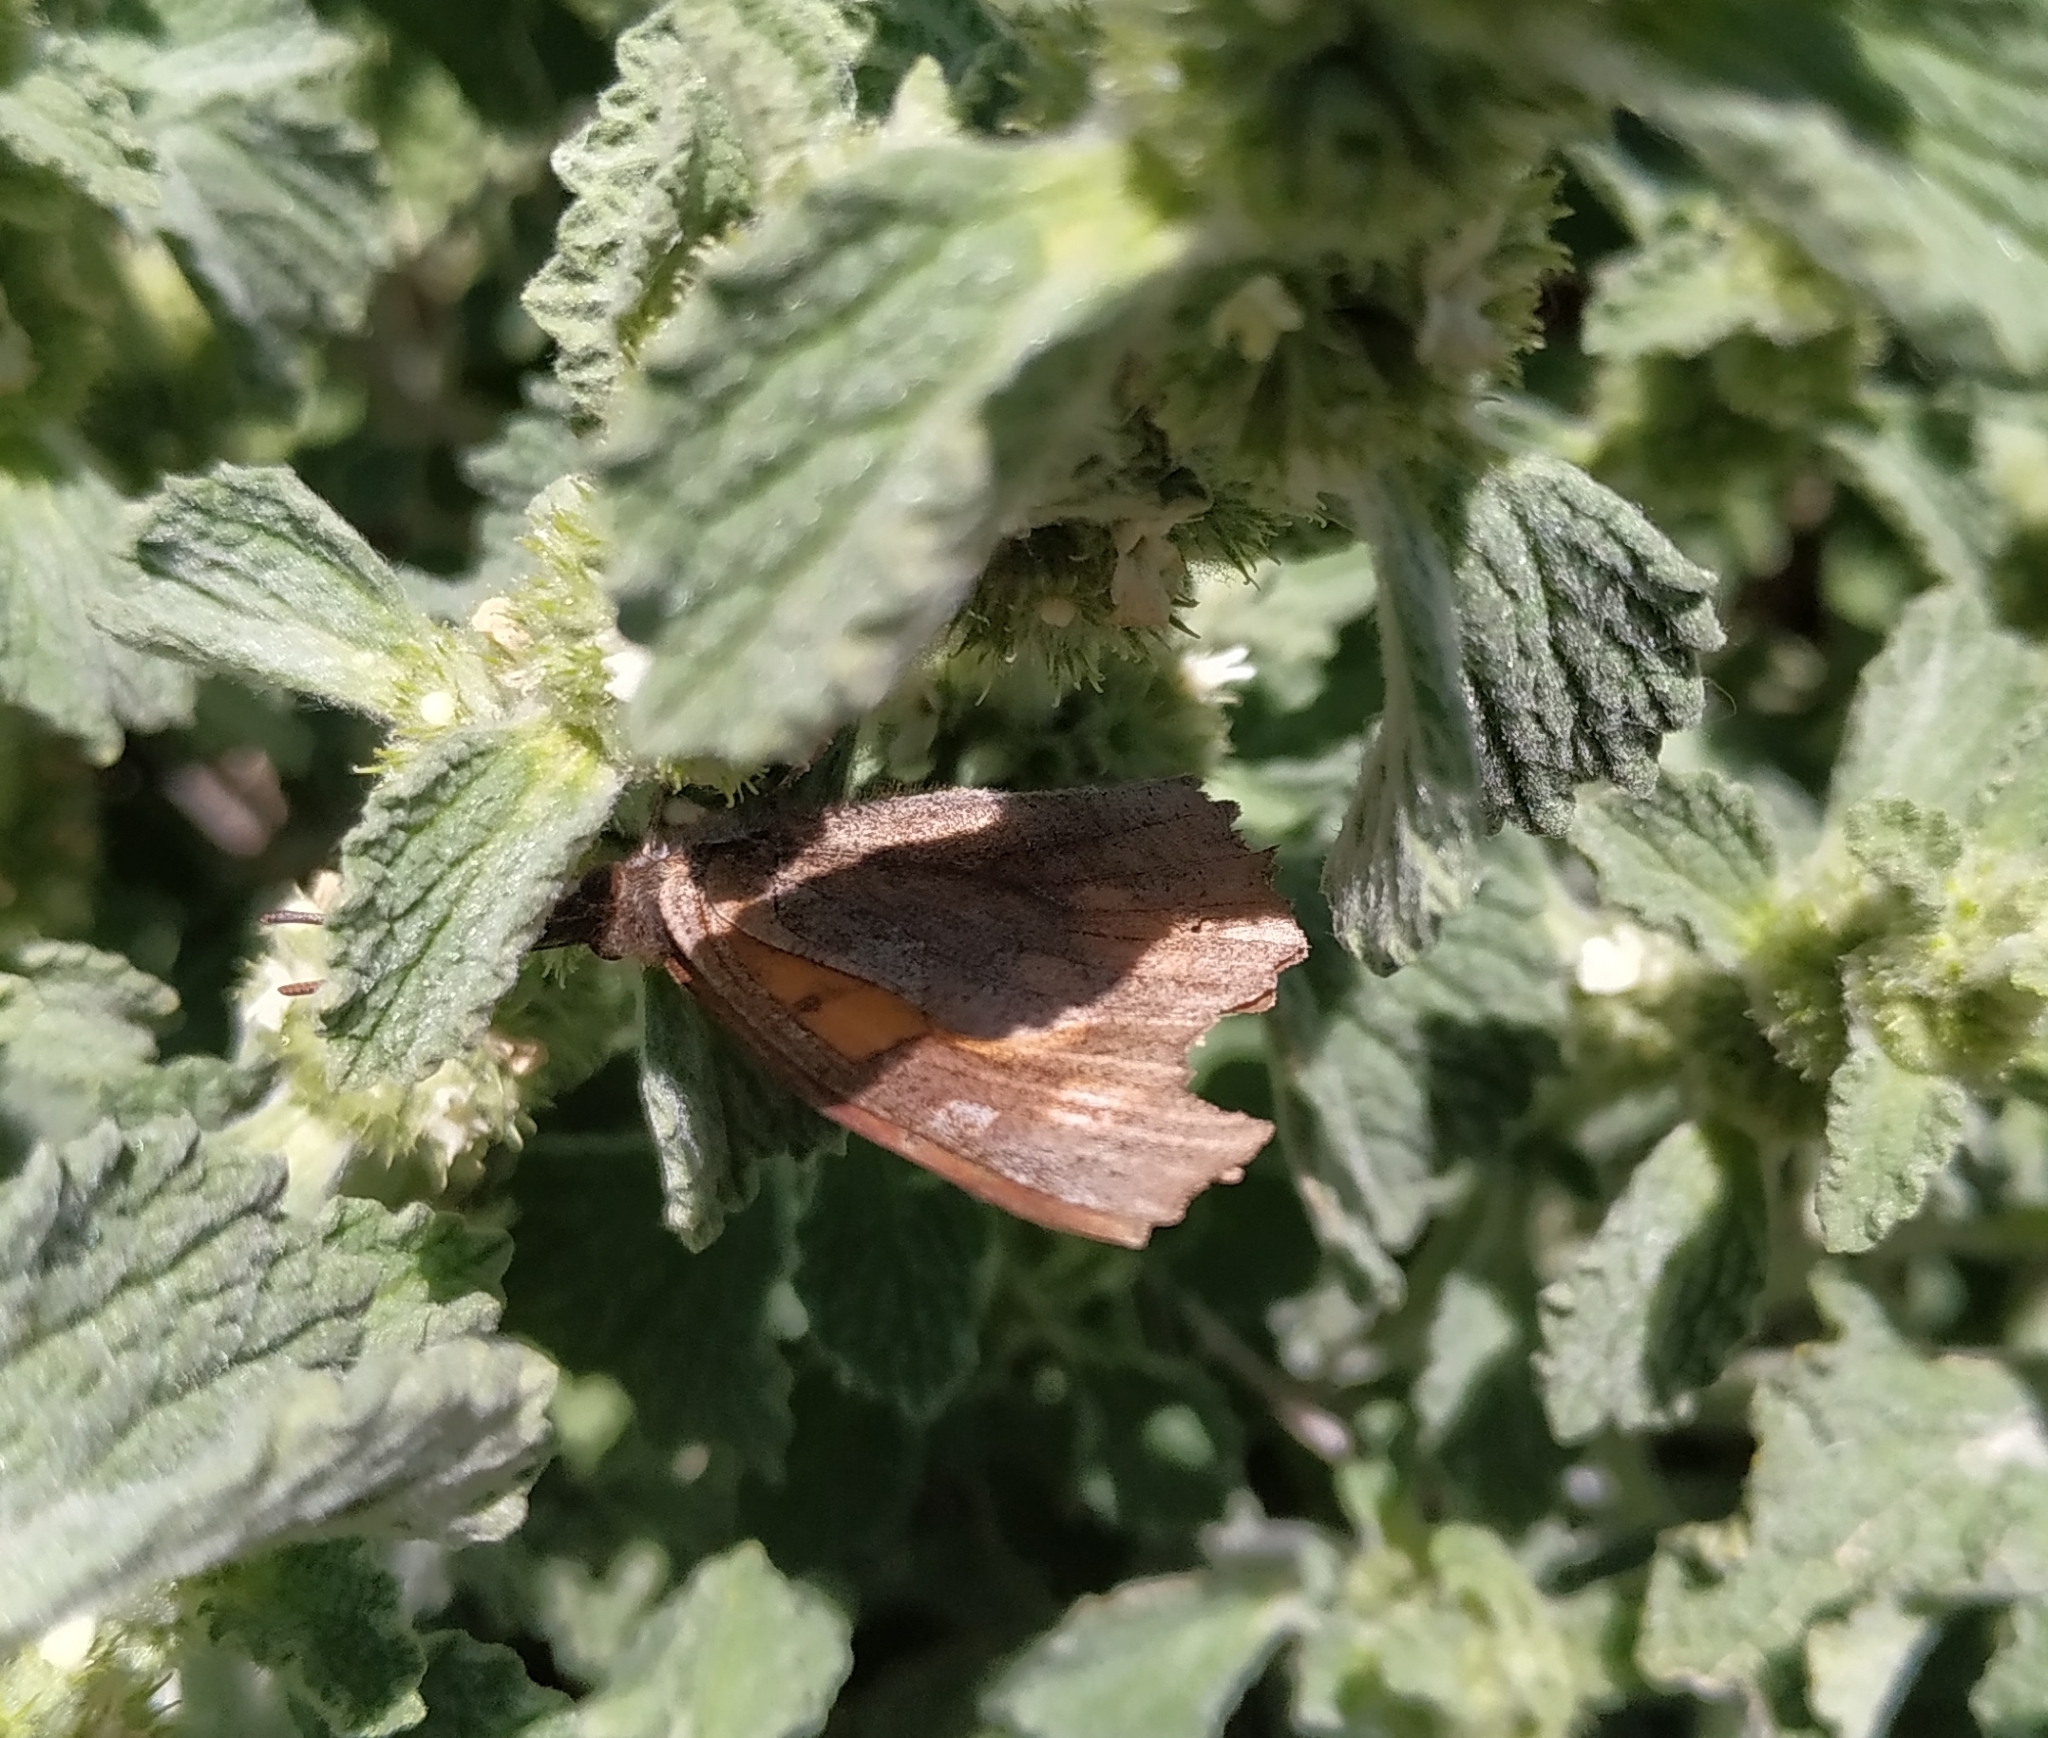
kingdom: Animalia
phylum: Arthropoda
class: Insecta
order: Lepidoptera
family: Nymphalidae
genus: Libythea
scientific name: Libythea celtis
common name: Nettle-tree butterfly
